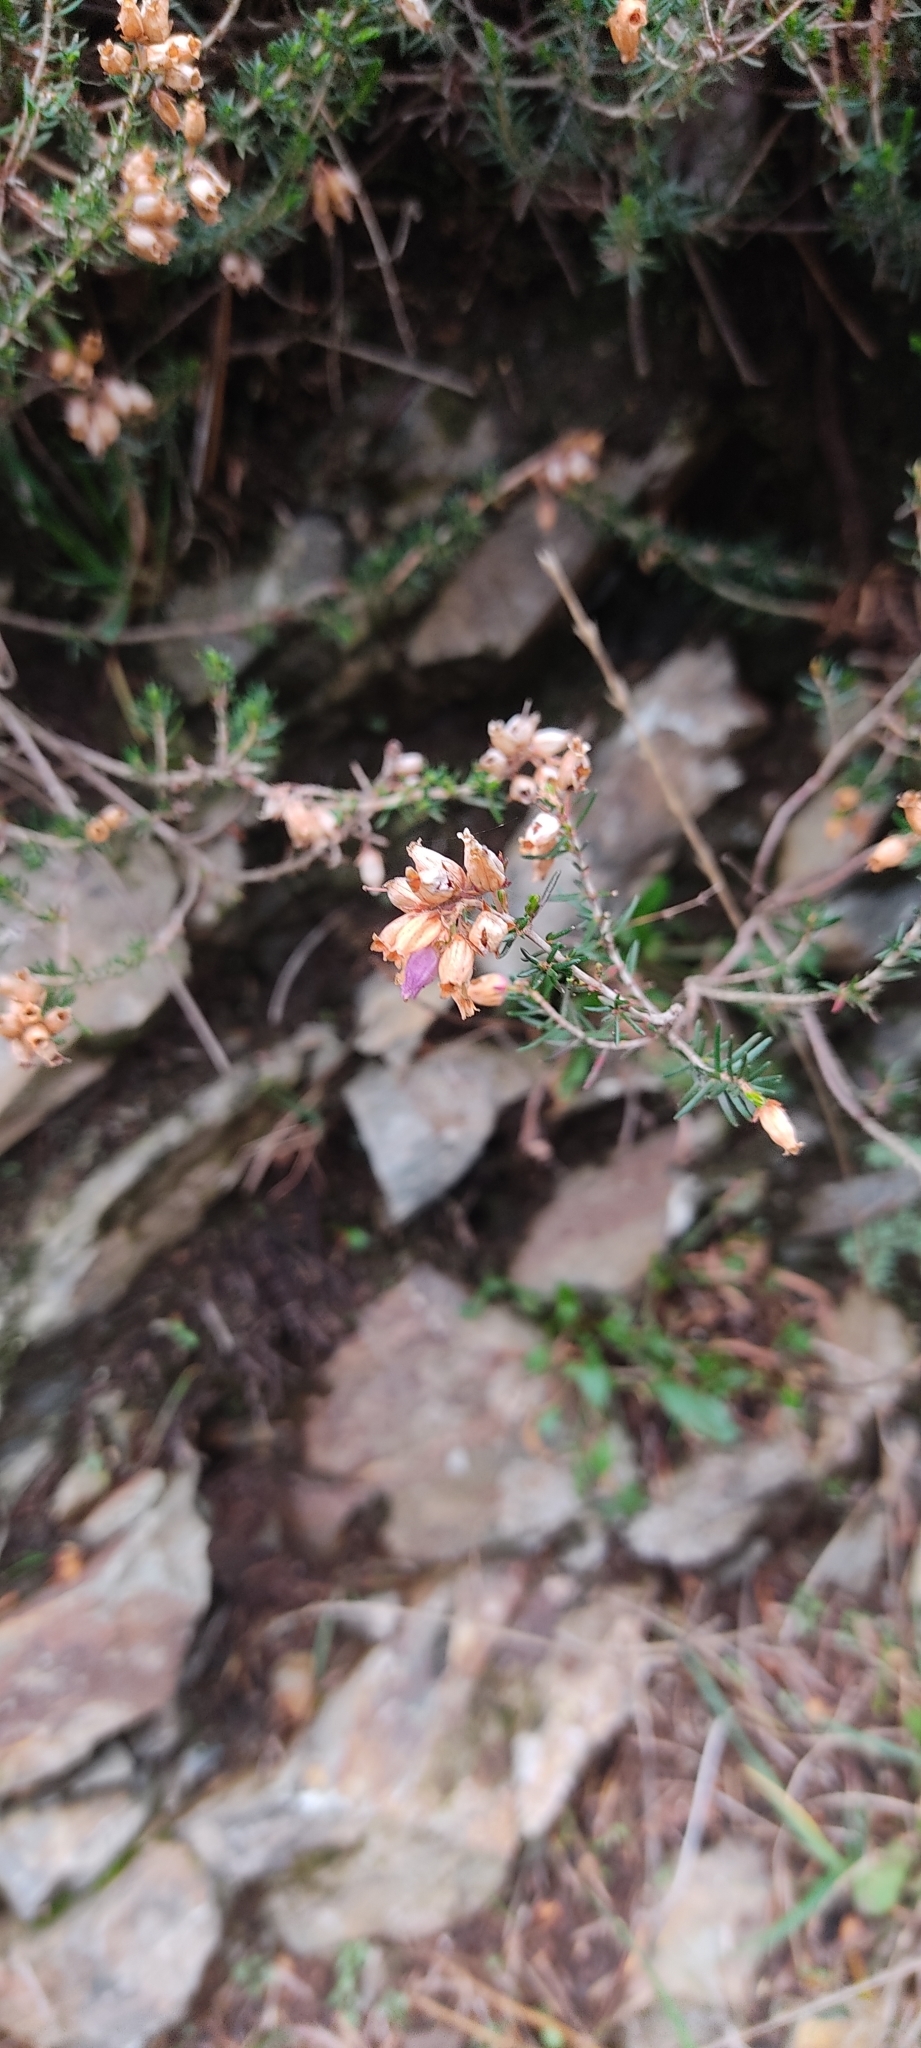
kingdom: Plantae
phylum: Tracheophyta
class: Magnoliopsida
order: Ericales
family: Ericaceae
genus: Erica
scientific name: Erica cinerea
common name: Bell heather
